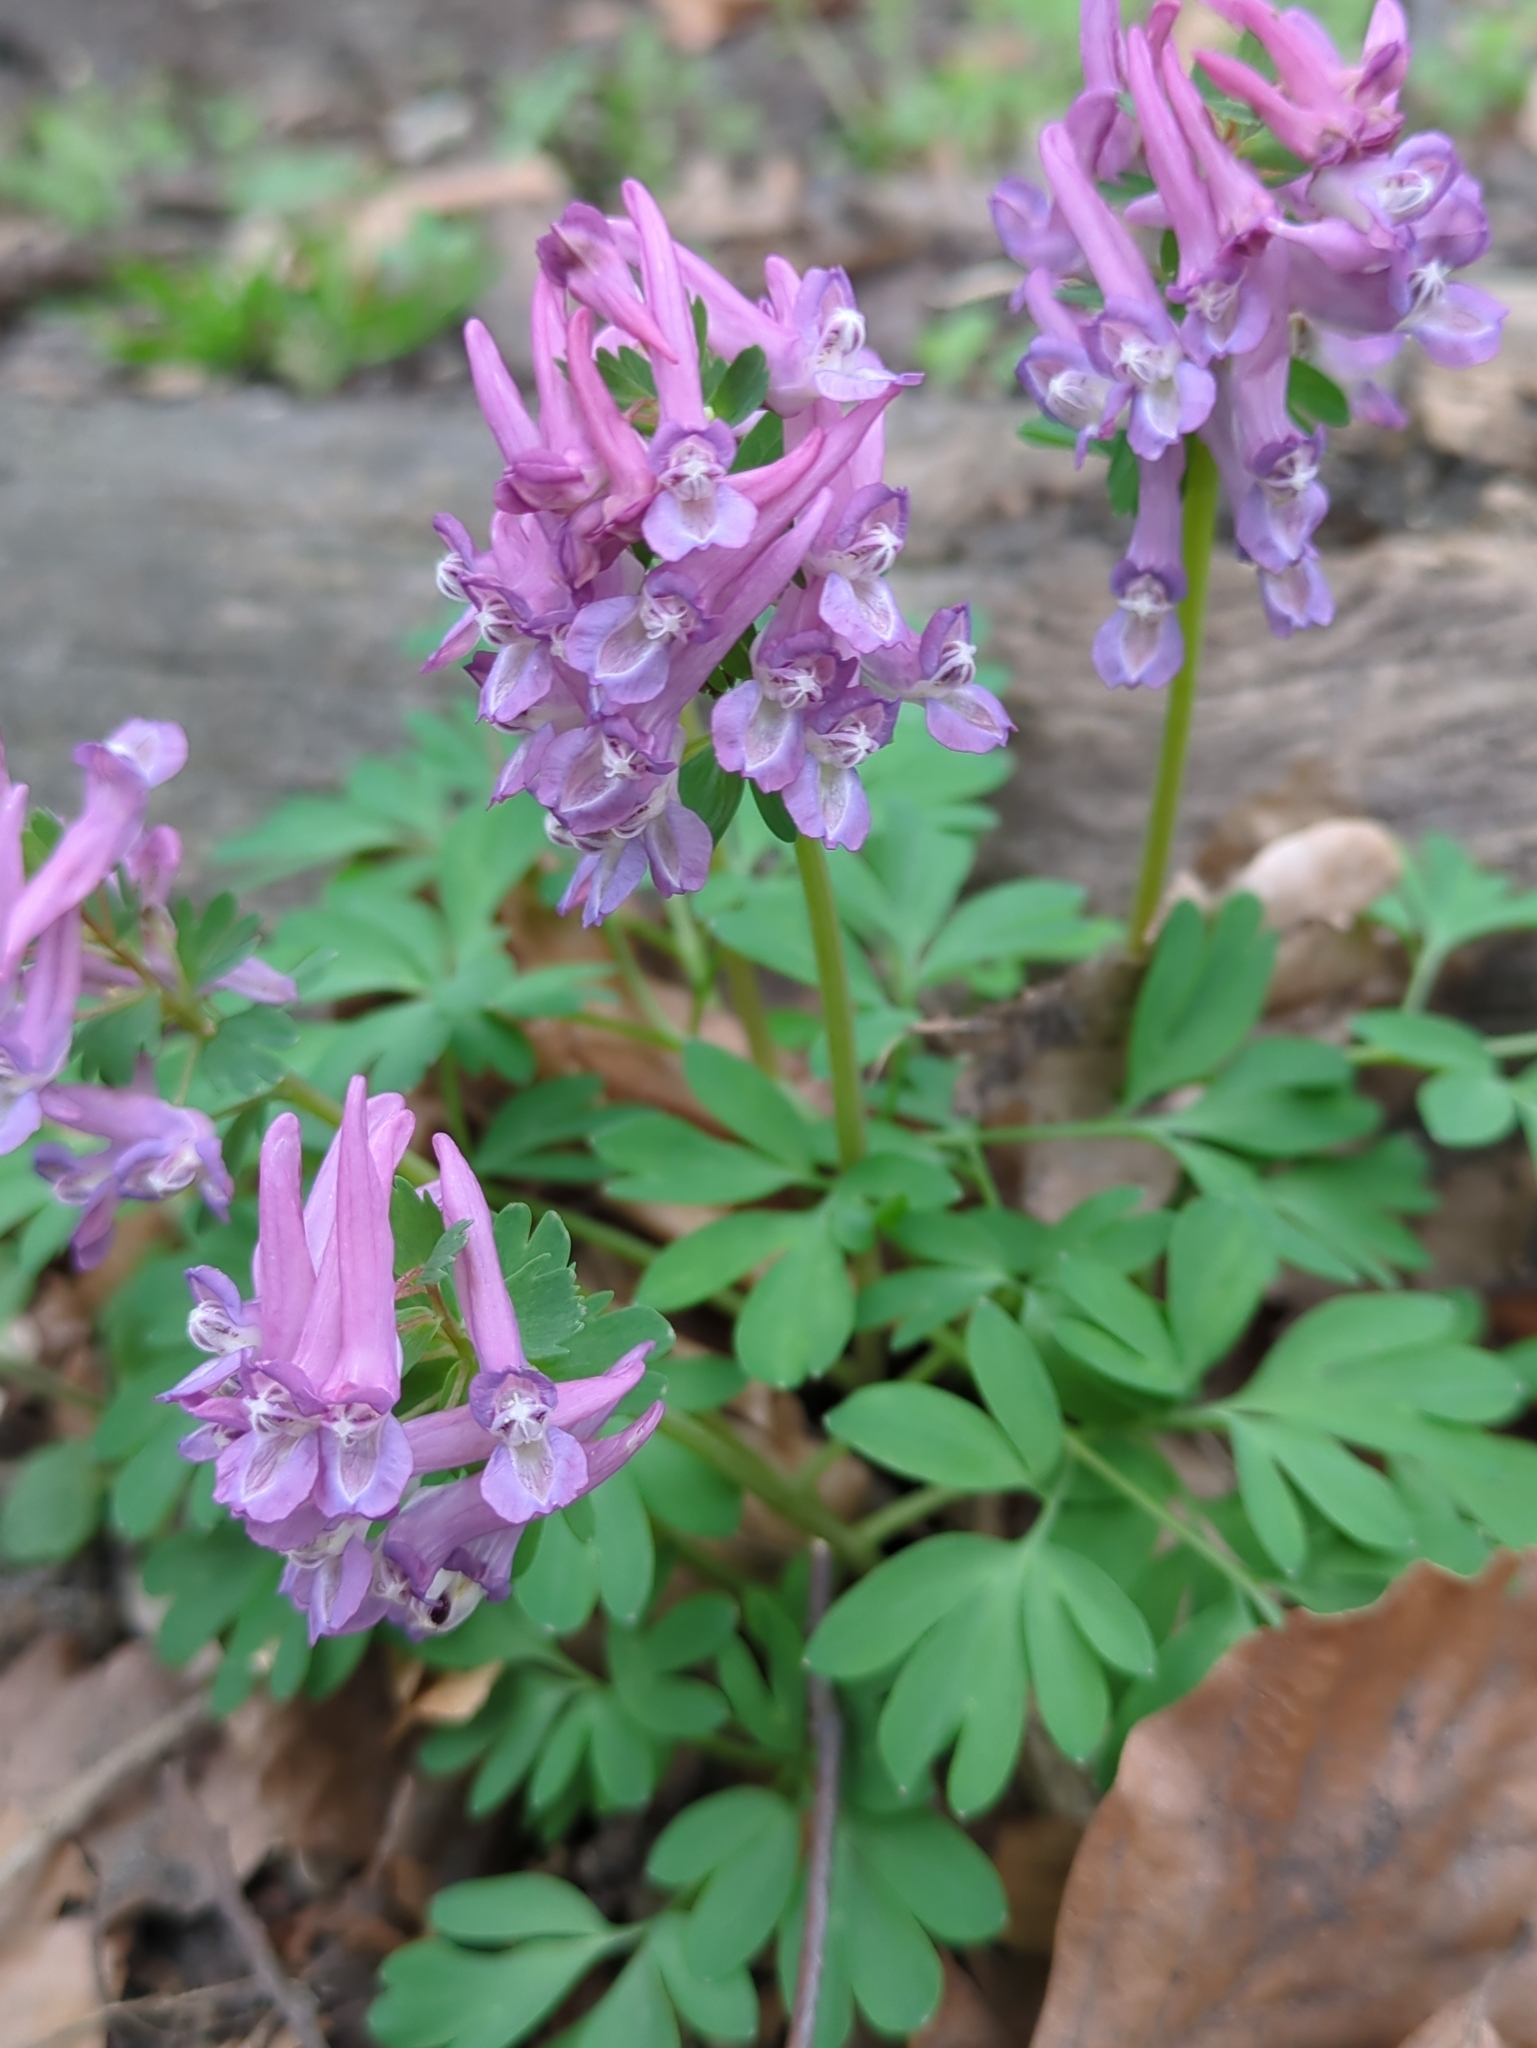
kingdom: Plantae
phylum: Tracheophyta
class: Magnoliopsida
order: Ranunculales
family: Papaveraceae
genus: Corydalis
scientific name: Corydalis solida
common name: Bird-in-a-bush
